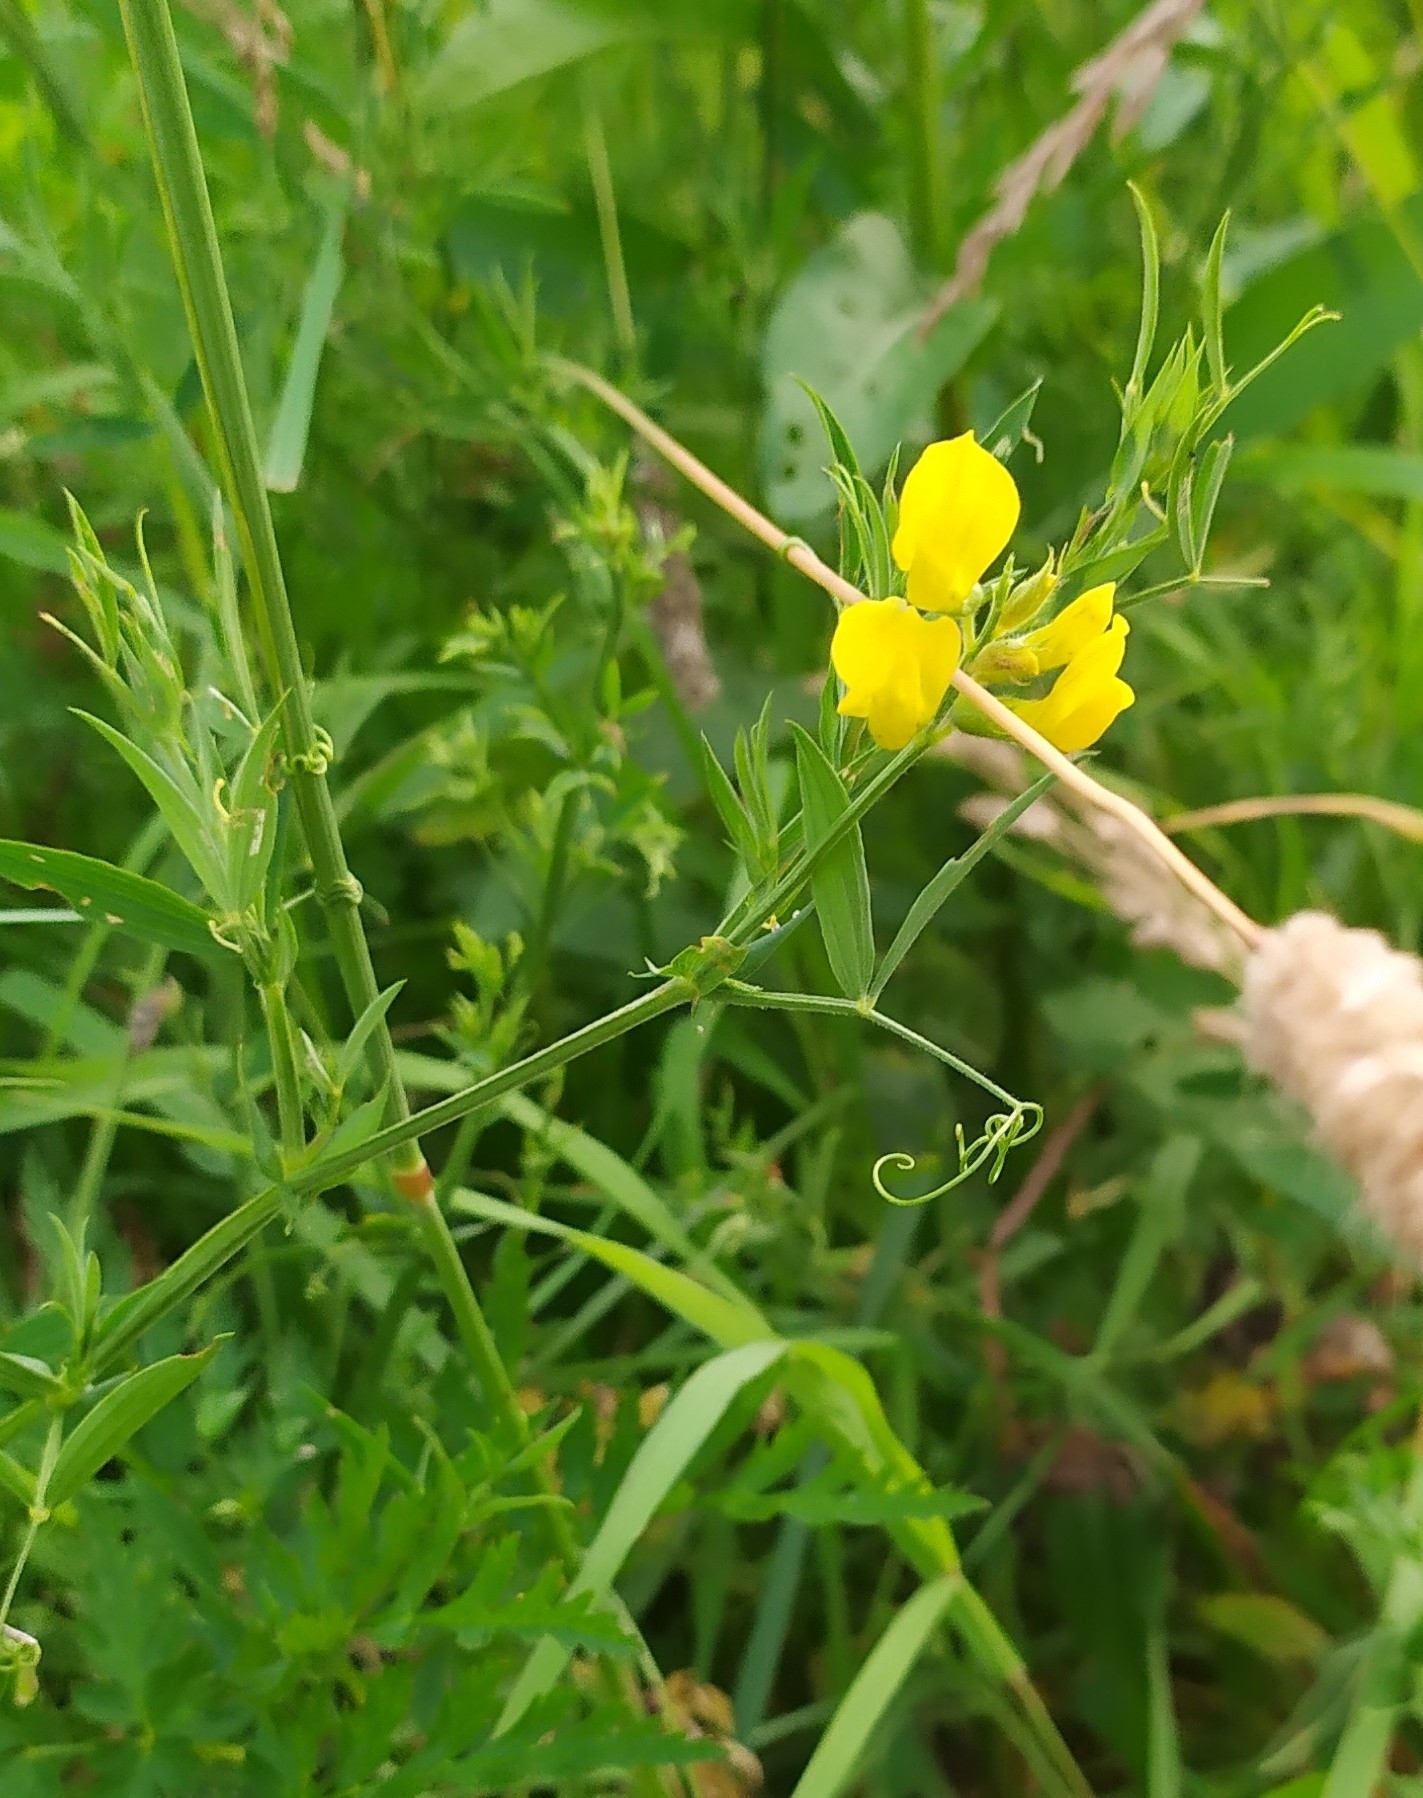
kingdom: Plantae
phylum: Tracheophyta
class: Magnoliopsida
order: Fabales
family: Fabaceae
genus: Lathyrus
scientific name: Lathyrus pratensis
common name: Meadow vetchling
